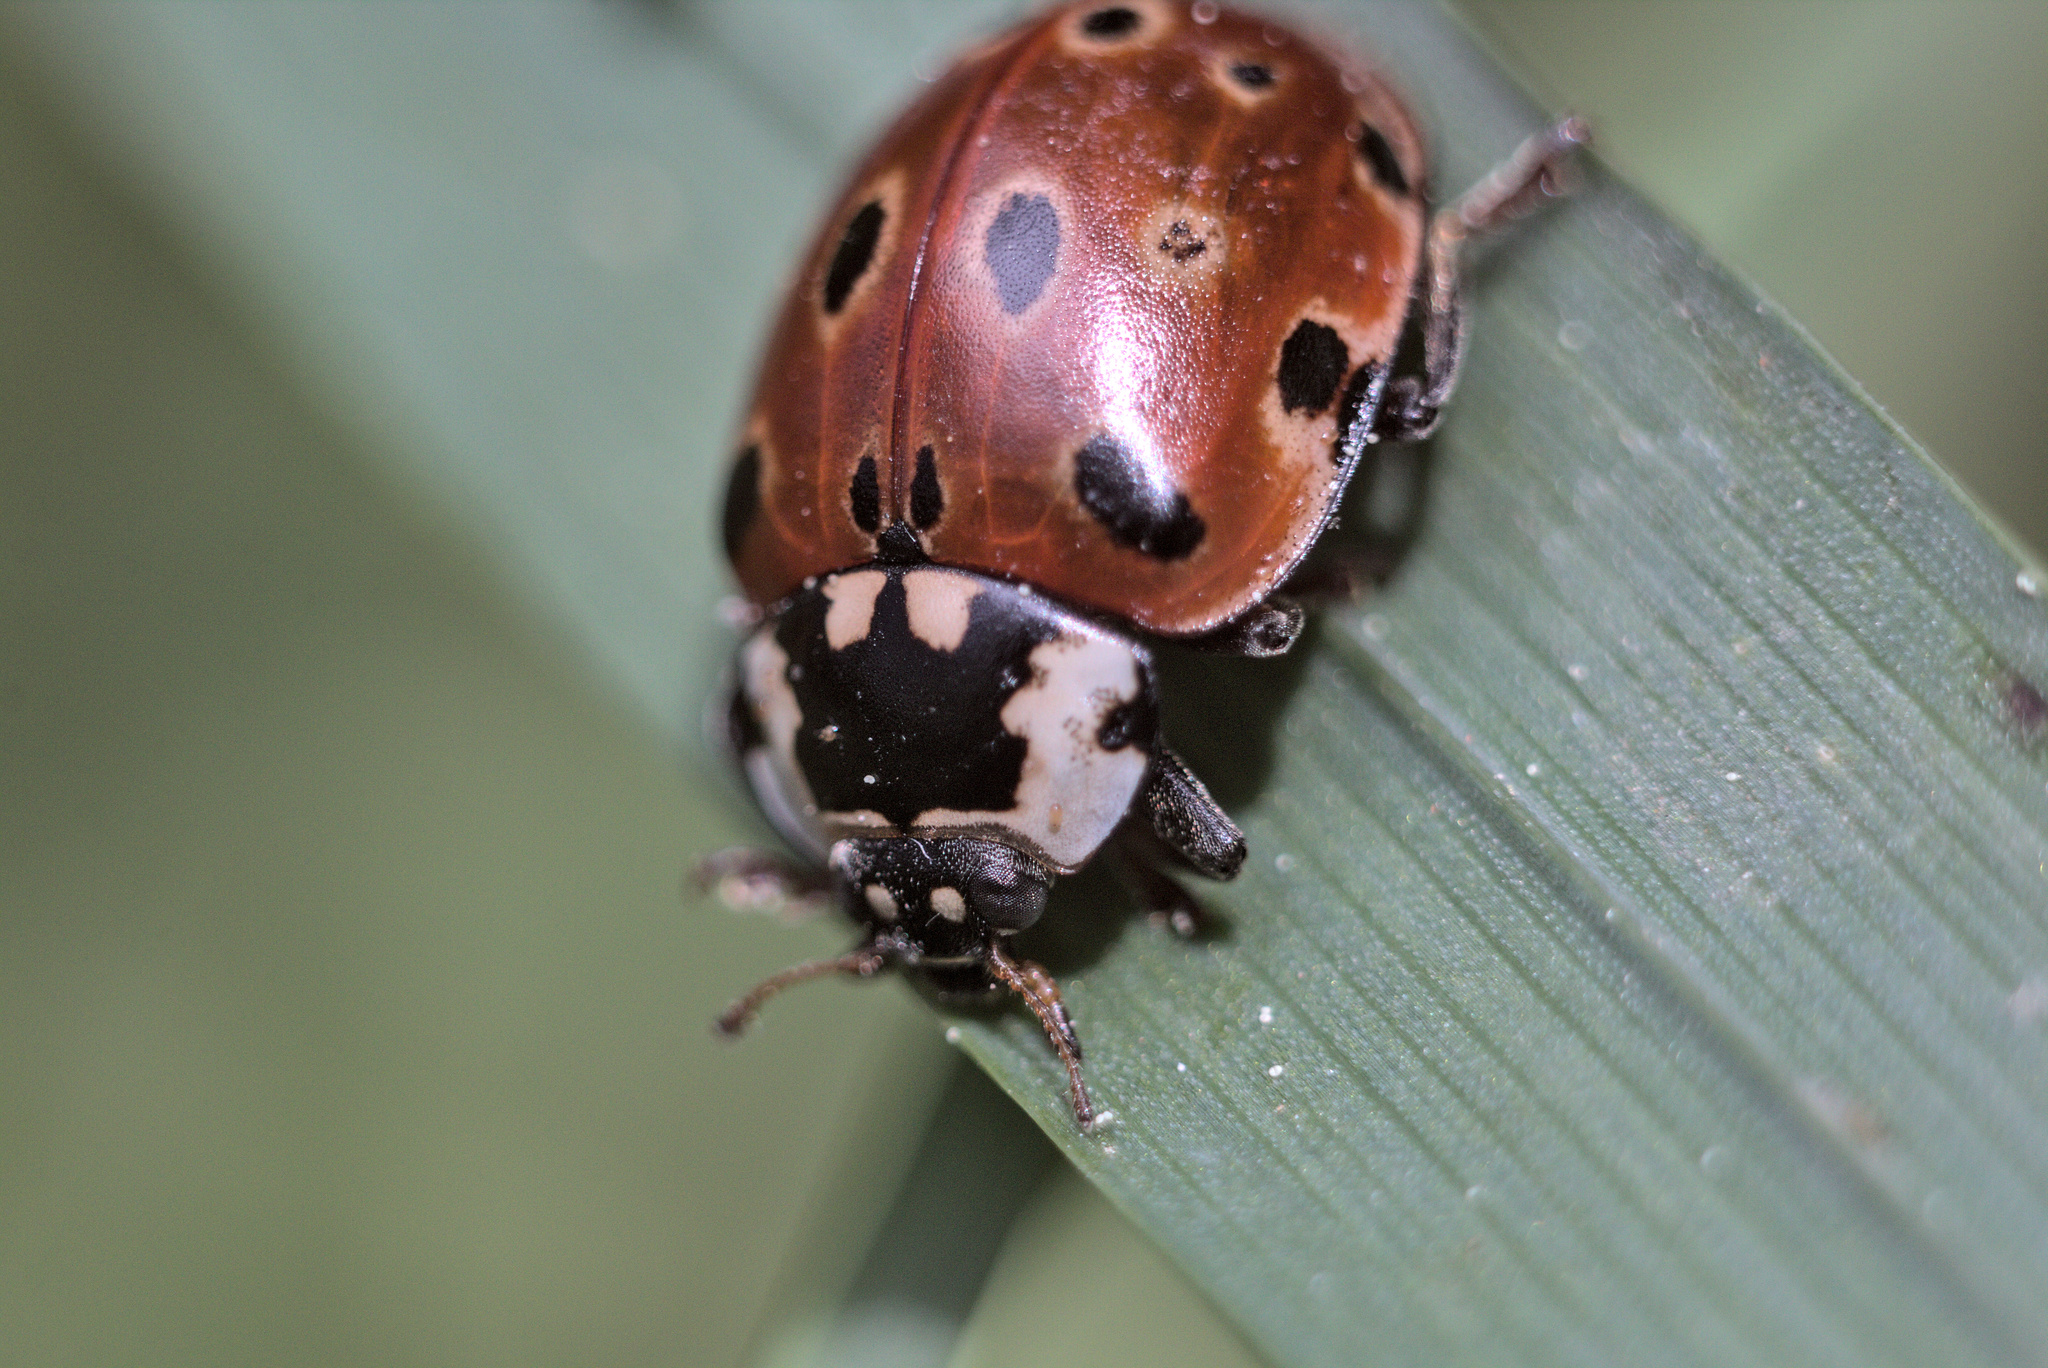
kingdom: Animalia
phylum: Arthropoda
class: Insecta
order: Coleoptera
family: Coccinellidae
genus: Anatis
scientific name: Anatis ocellata
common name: Eyed ladybird
